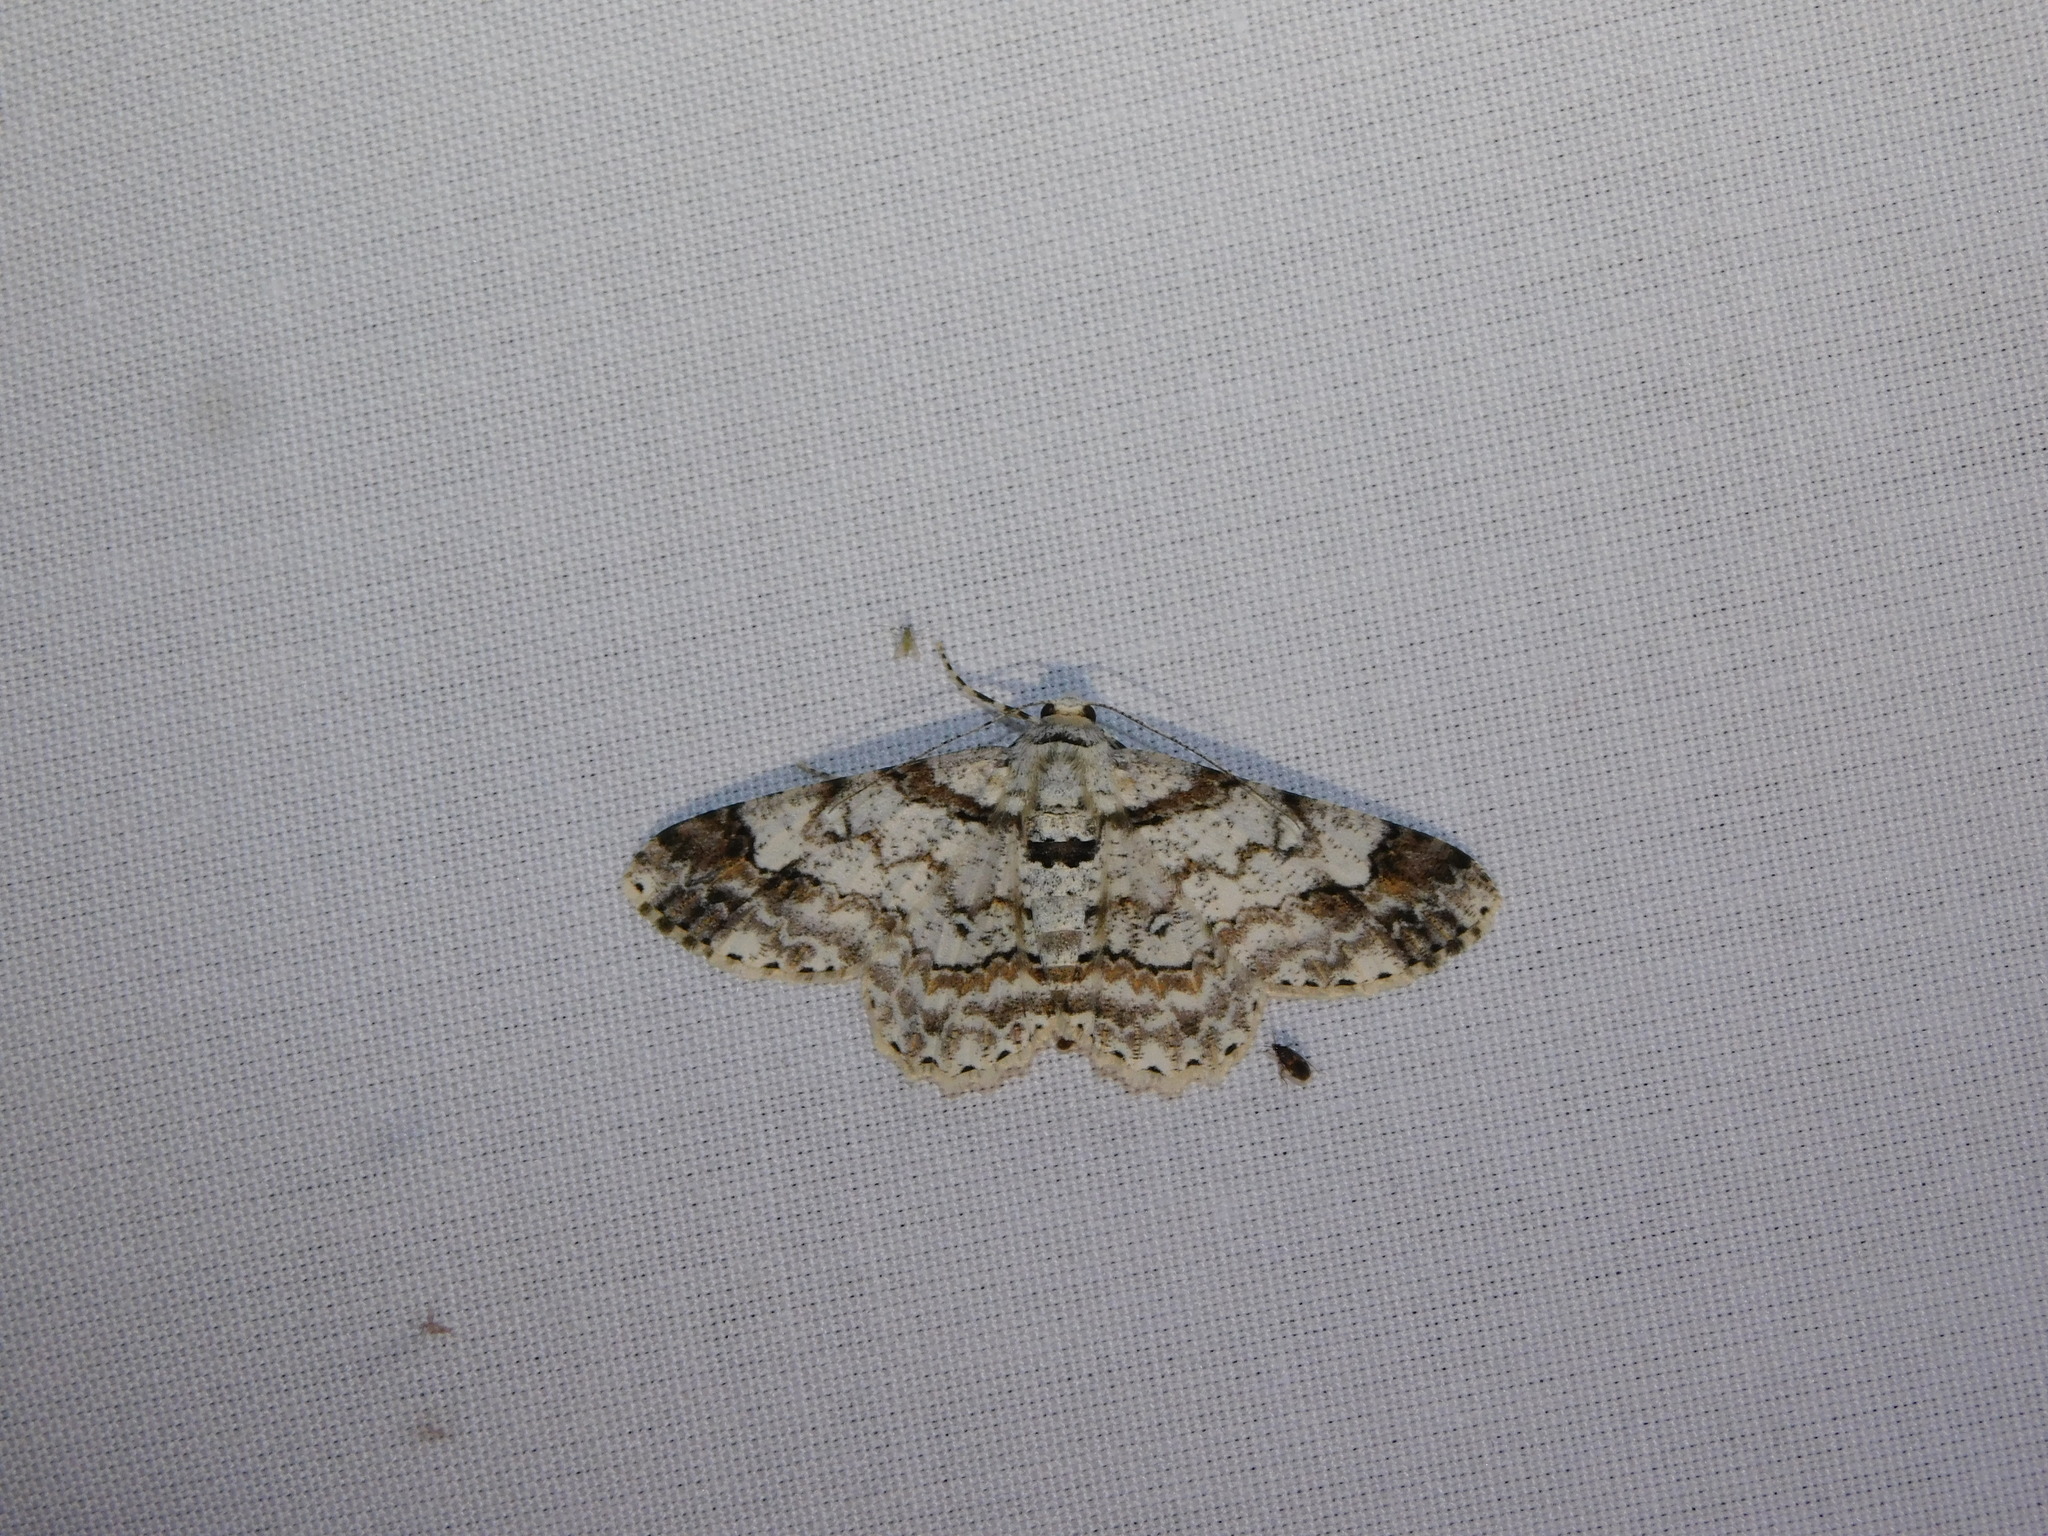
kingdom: Animalia
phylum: Arthropoda
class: Insecta
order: Lepidoptera
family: Geometridae
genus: Cleora
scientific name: Cleora alienaria
